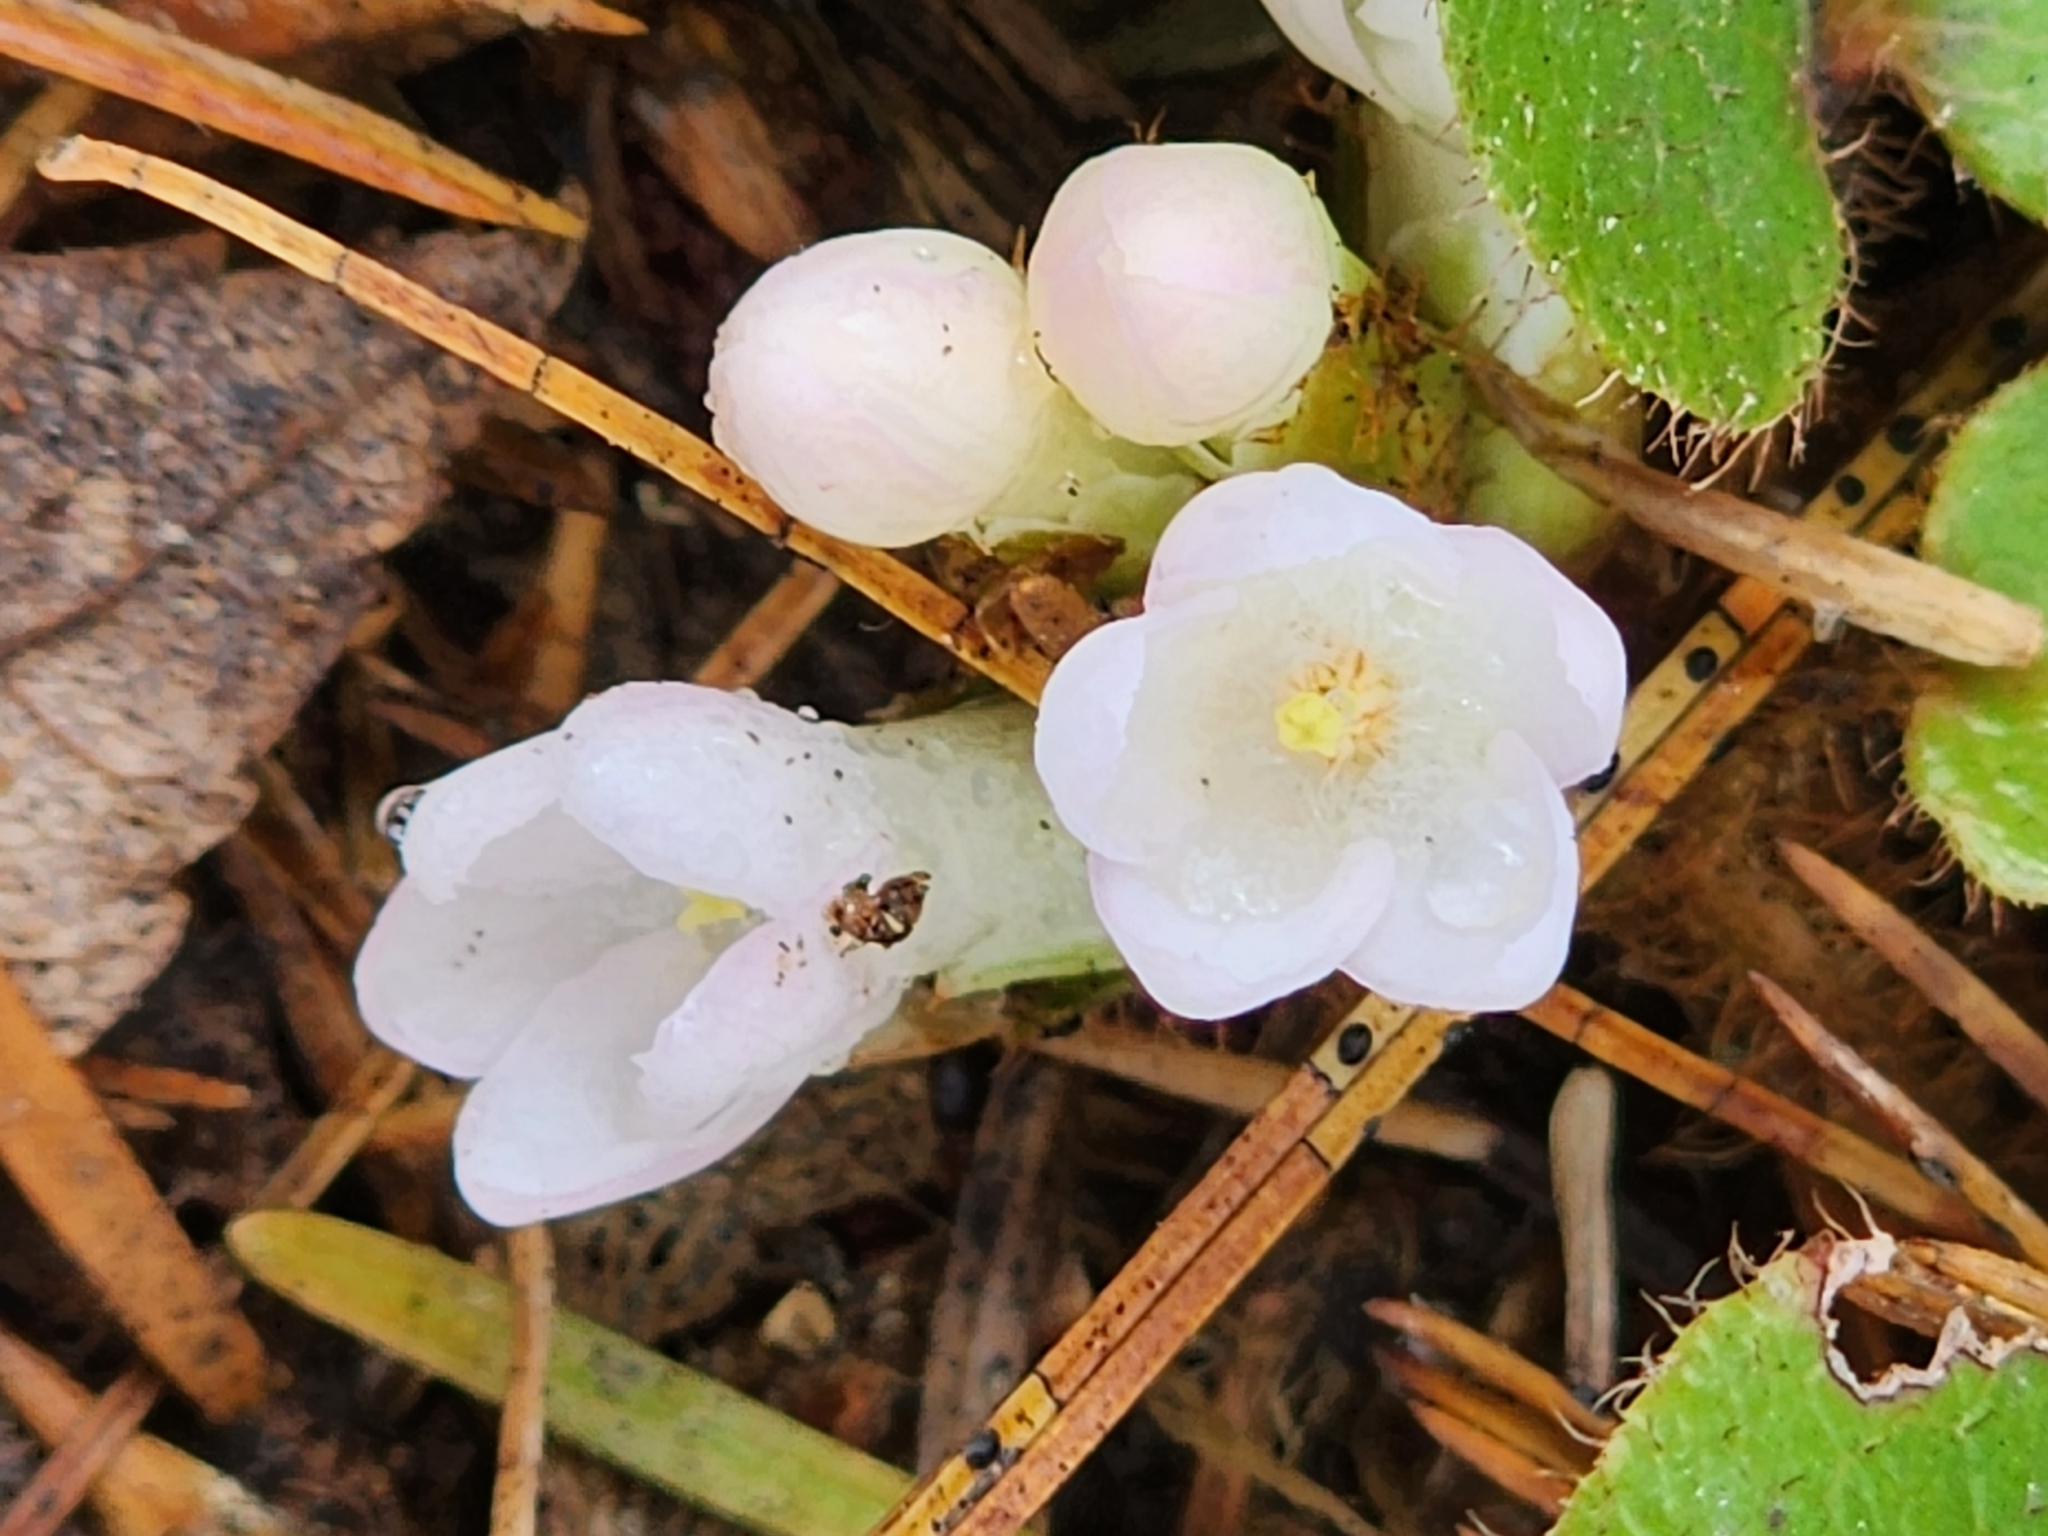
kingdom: Plantae
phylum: Tracheophyta
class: Magnoliopsida
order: Ericales
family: Ericaceae
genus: Epigaea
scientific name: Epigaea repens
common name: Gravelroot
